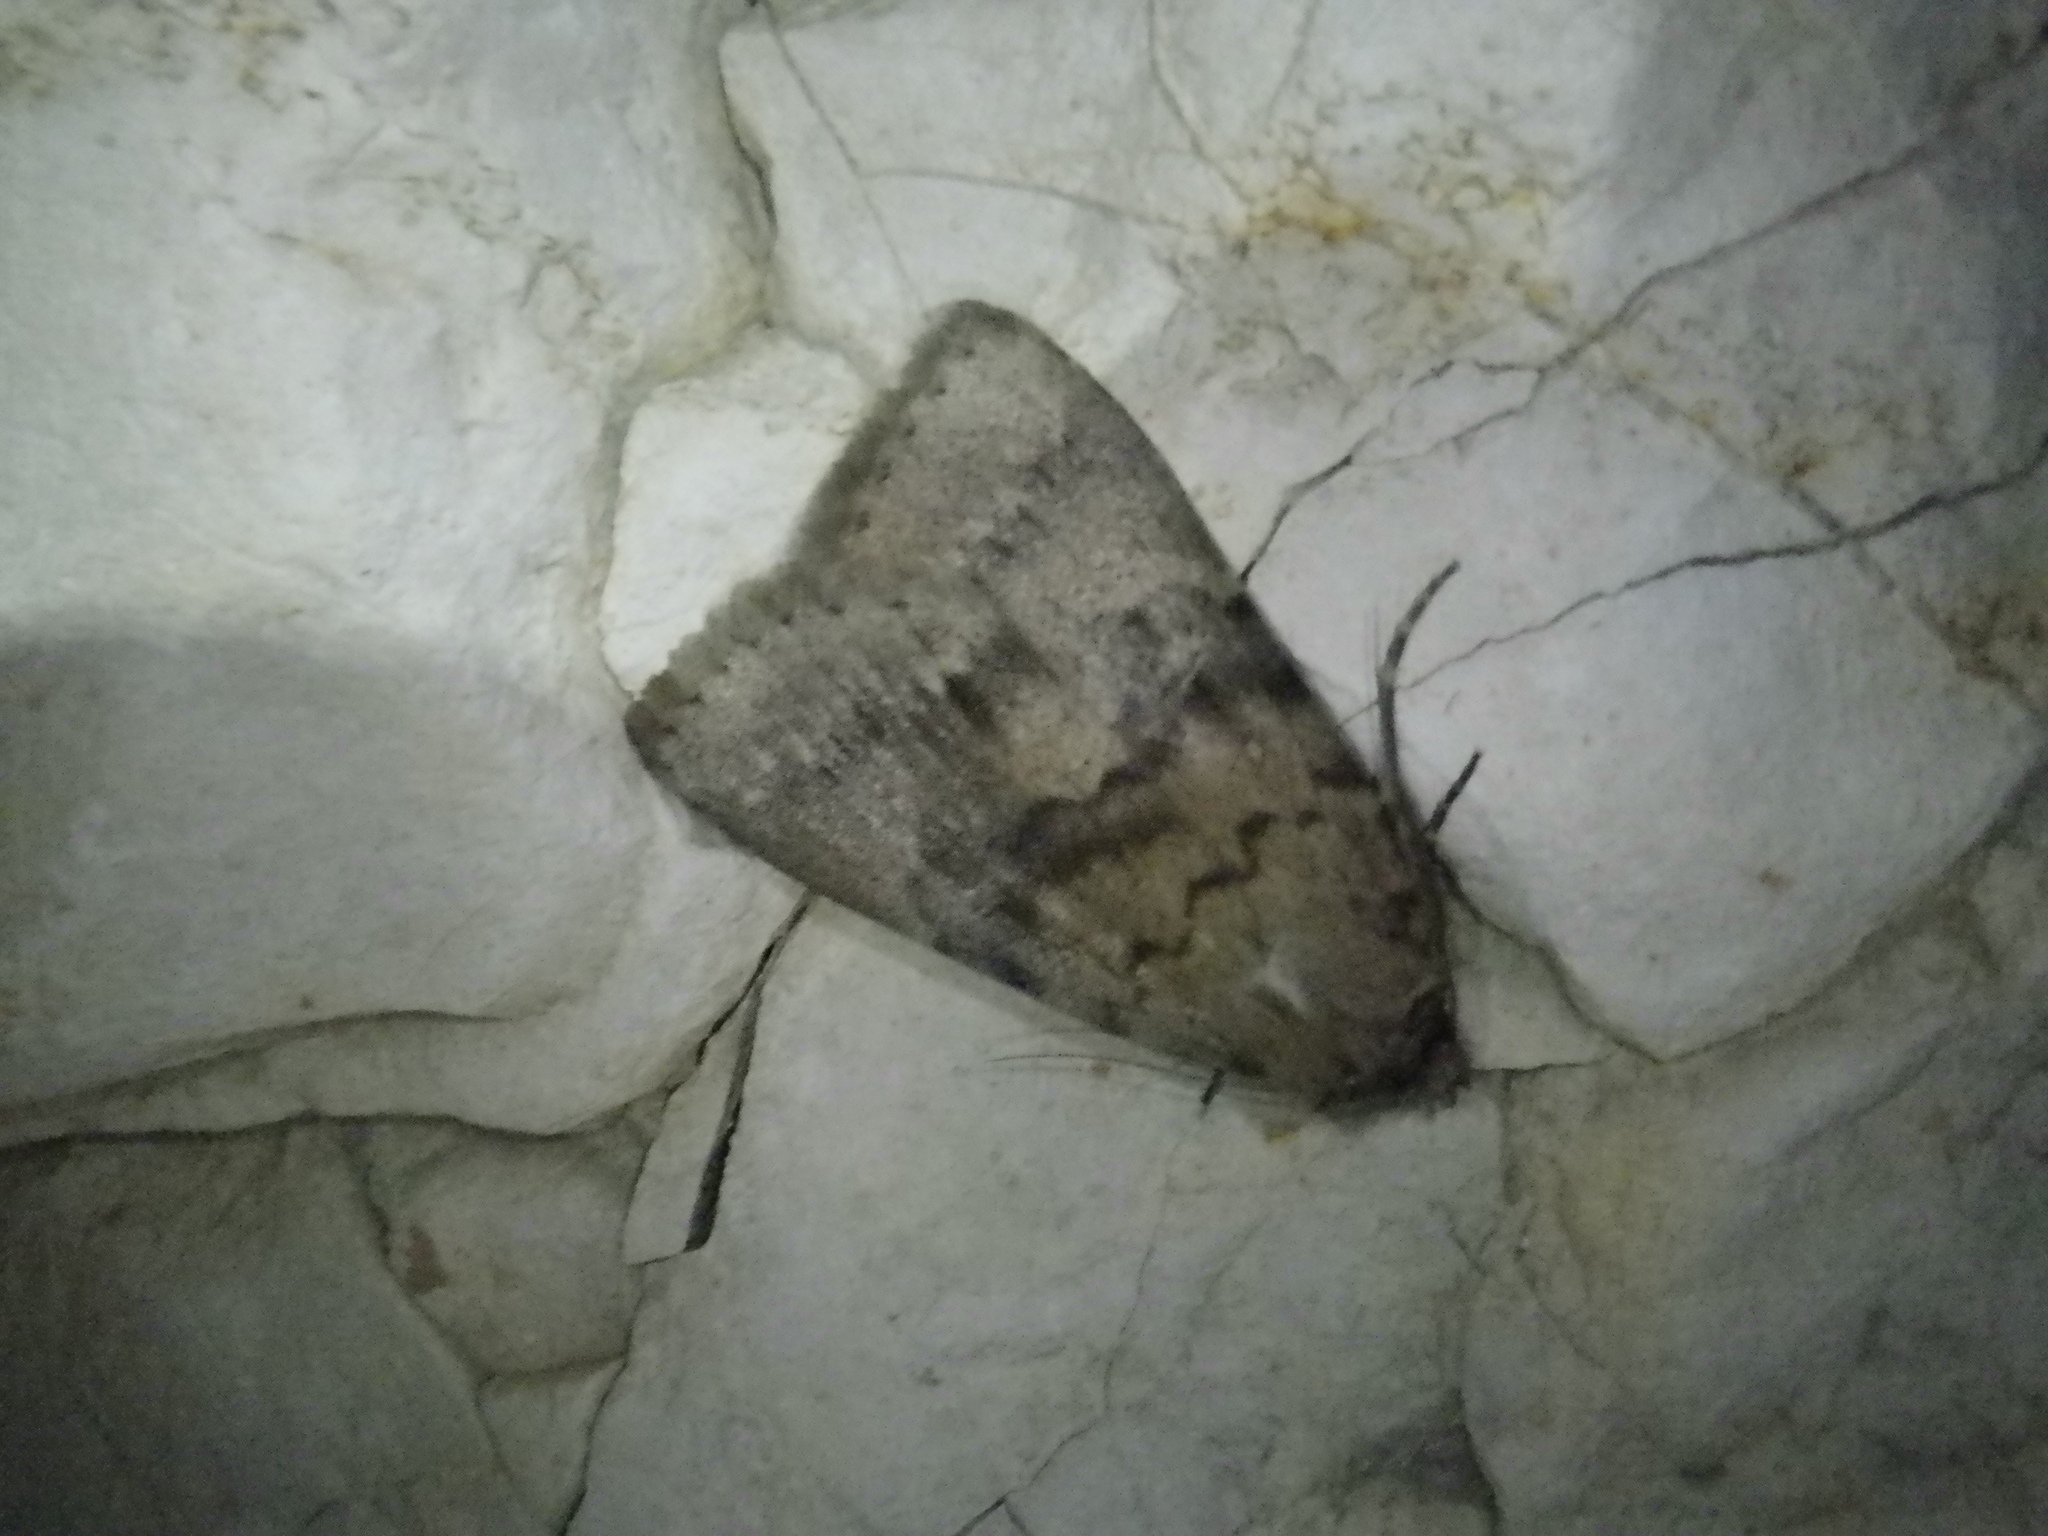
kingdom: Animalia
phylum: Arthropoda
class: Insecta
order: Lepidoptera
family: Erebidae
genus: Apopestes
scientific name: Apopestes spectrum
